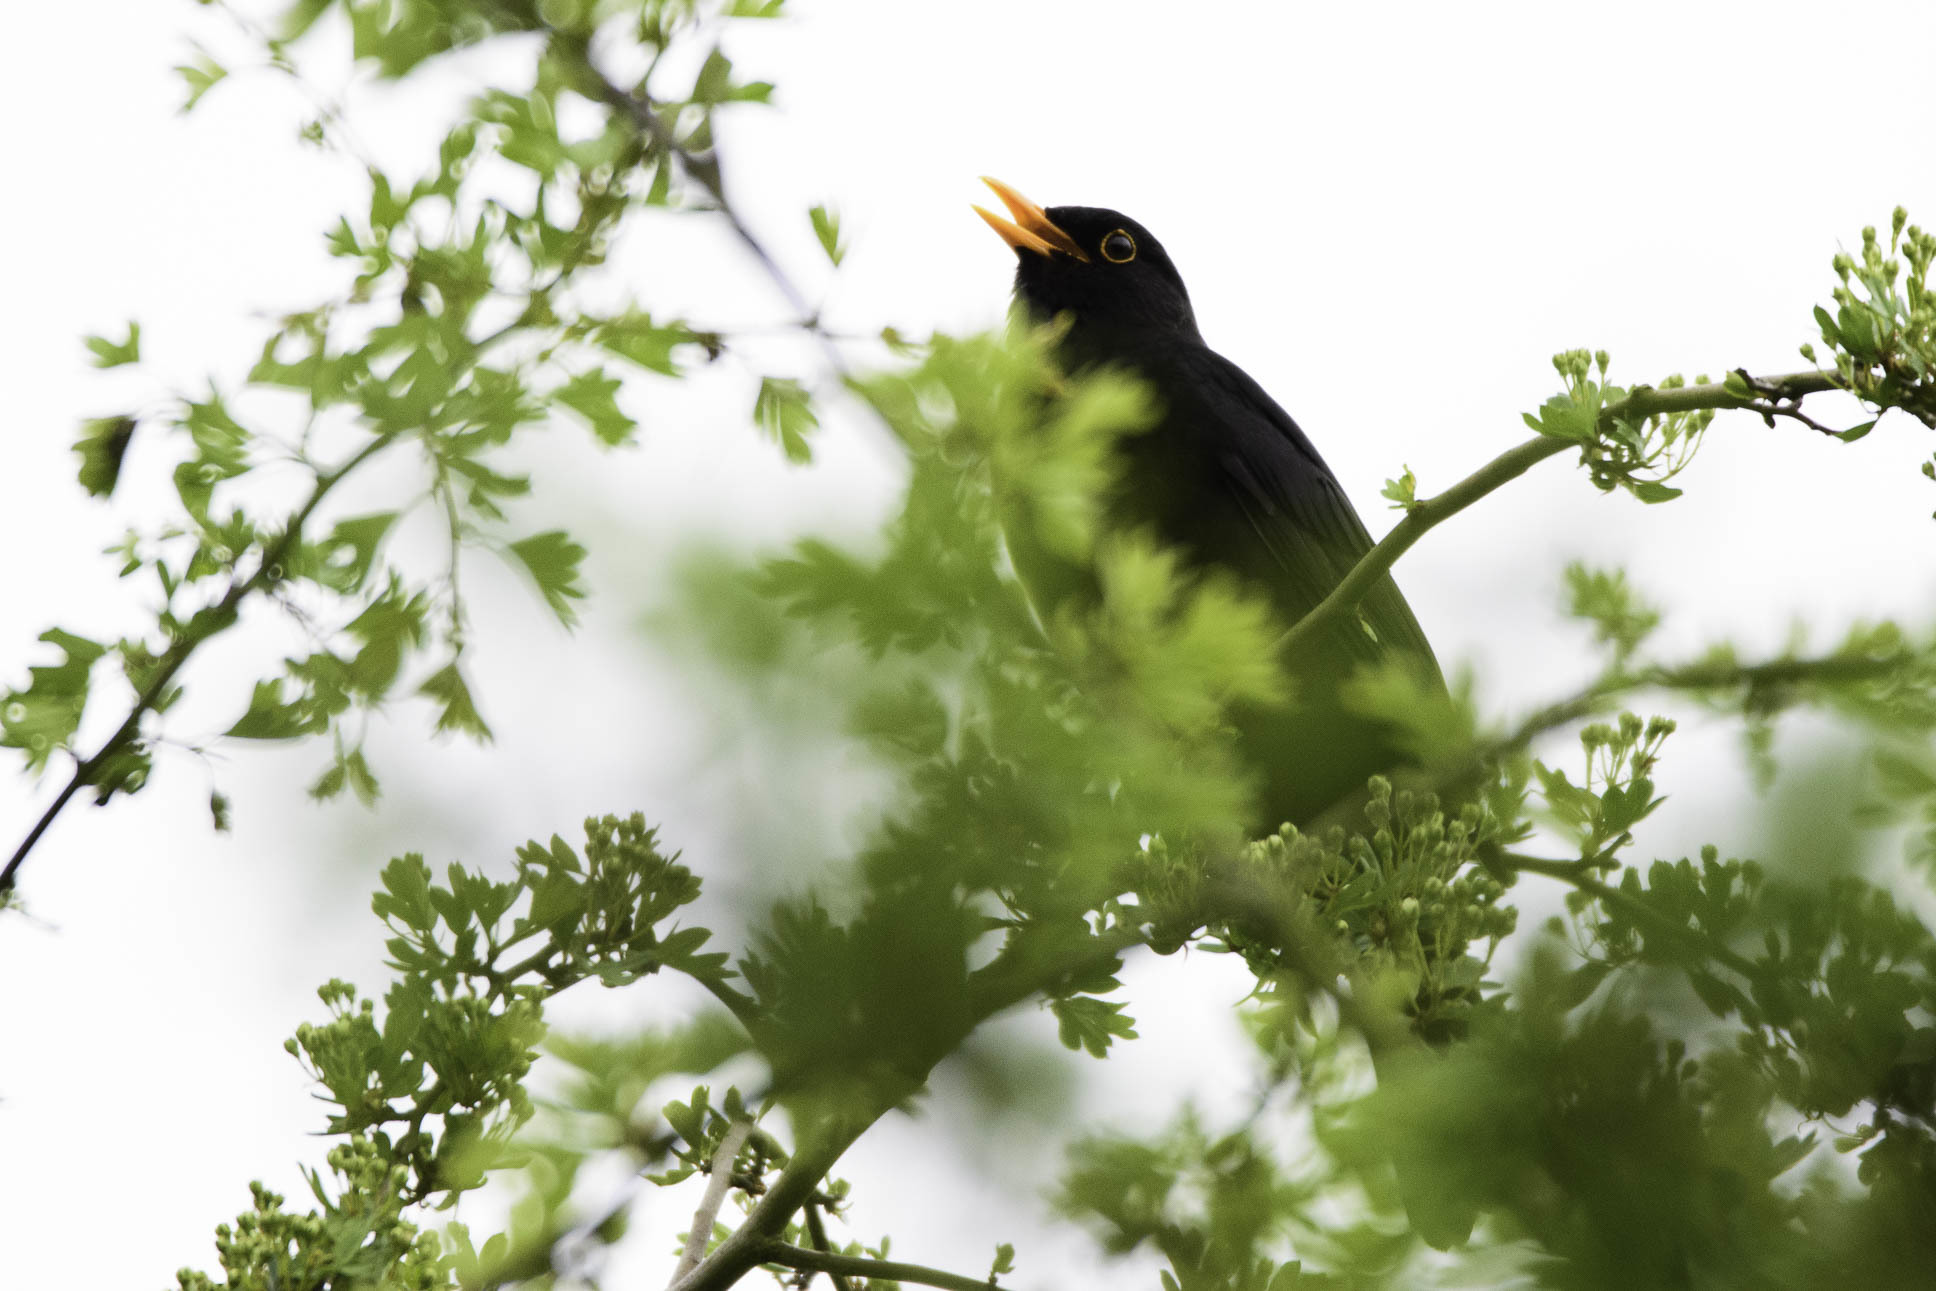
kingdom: Animalia
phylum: Chordata
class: Aves
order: Passeriformes
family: Turdidae
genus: Turdus
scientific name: Turdus merula
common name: Common blackbird
